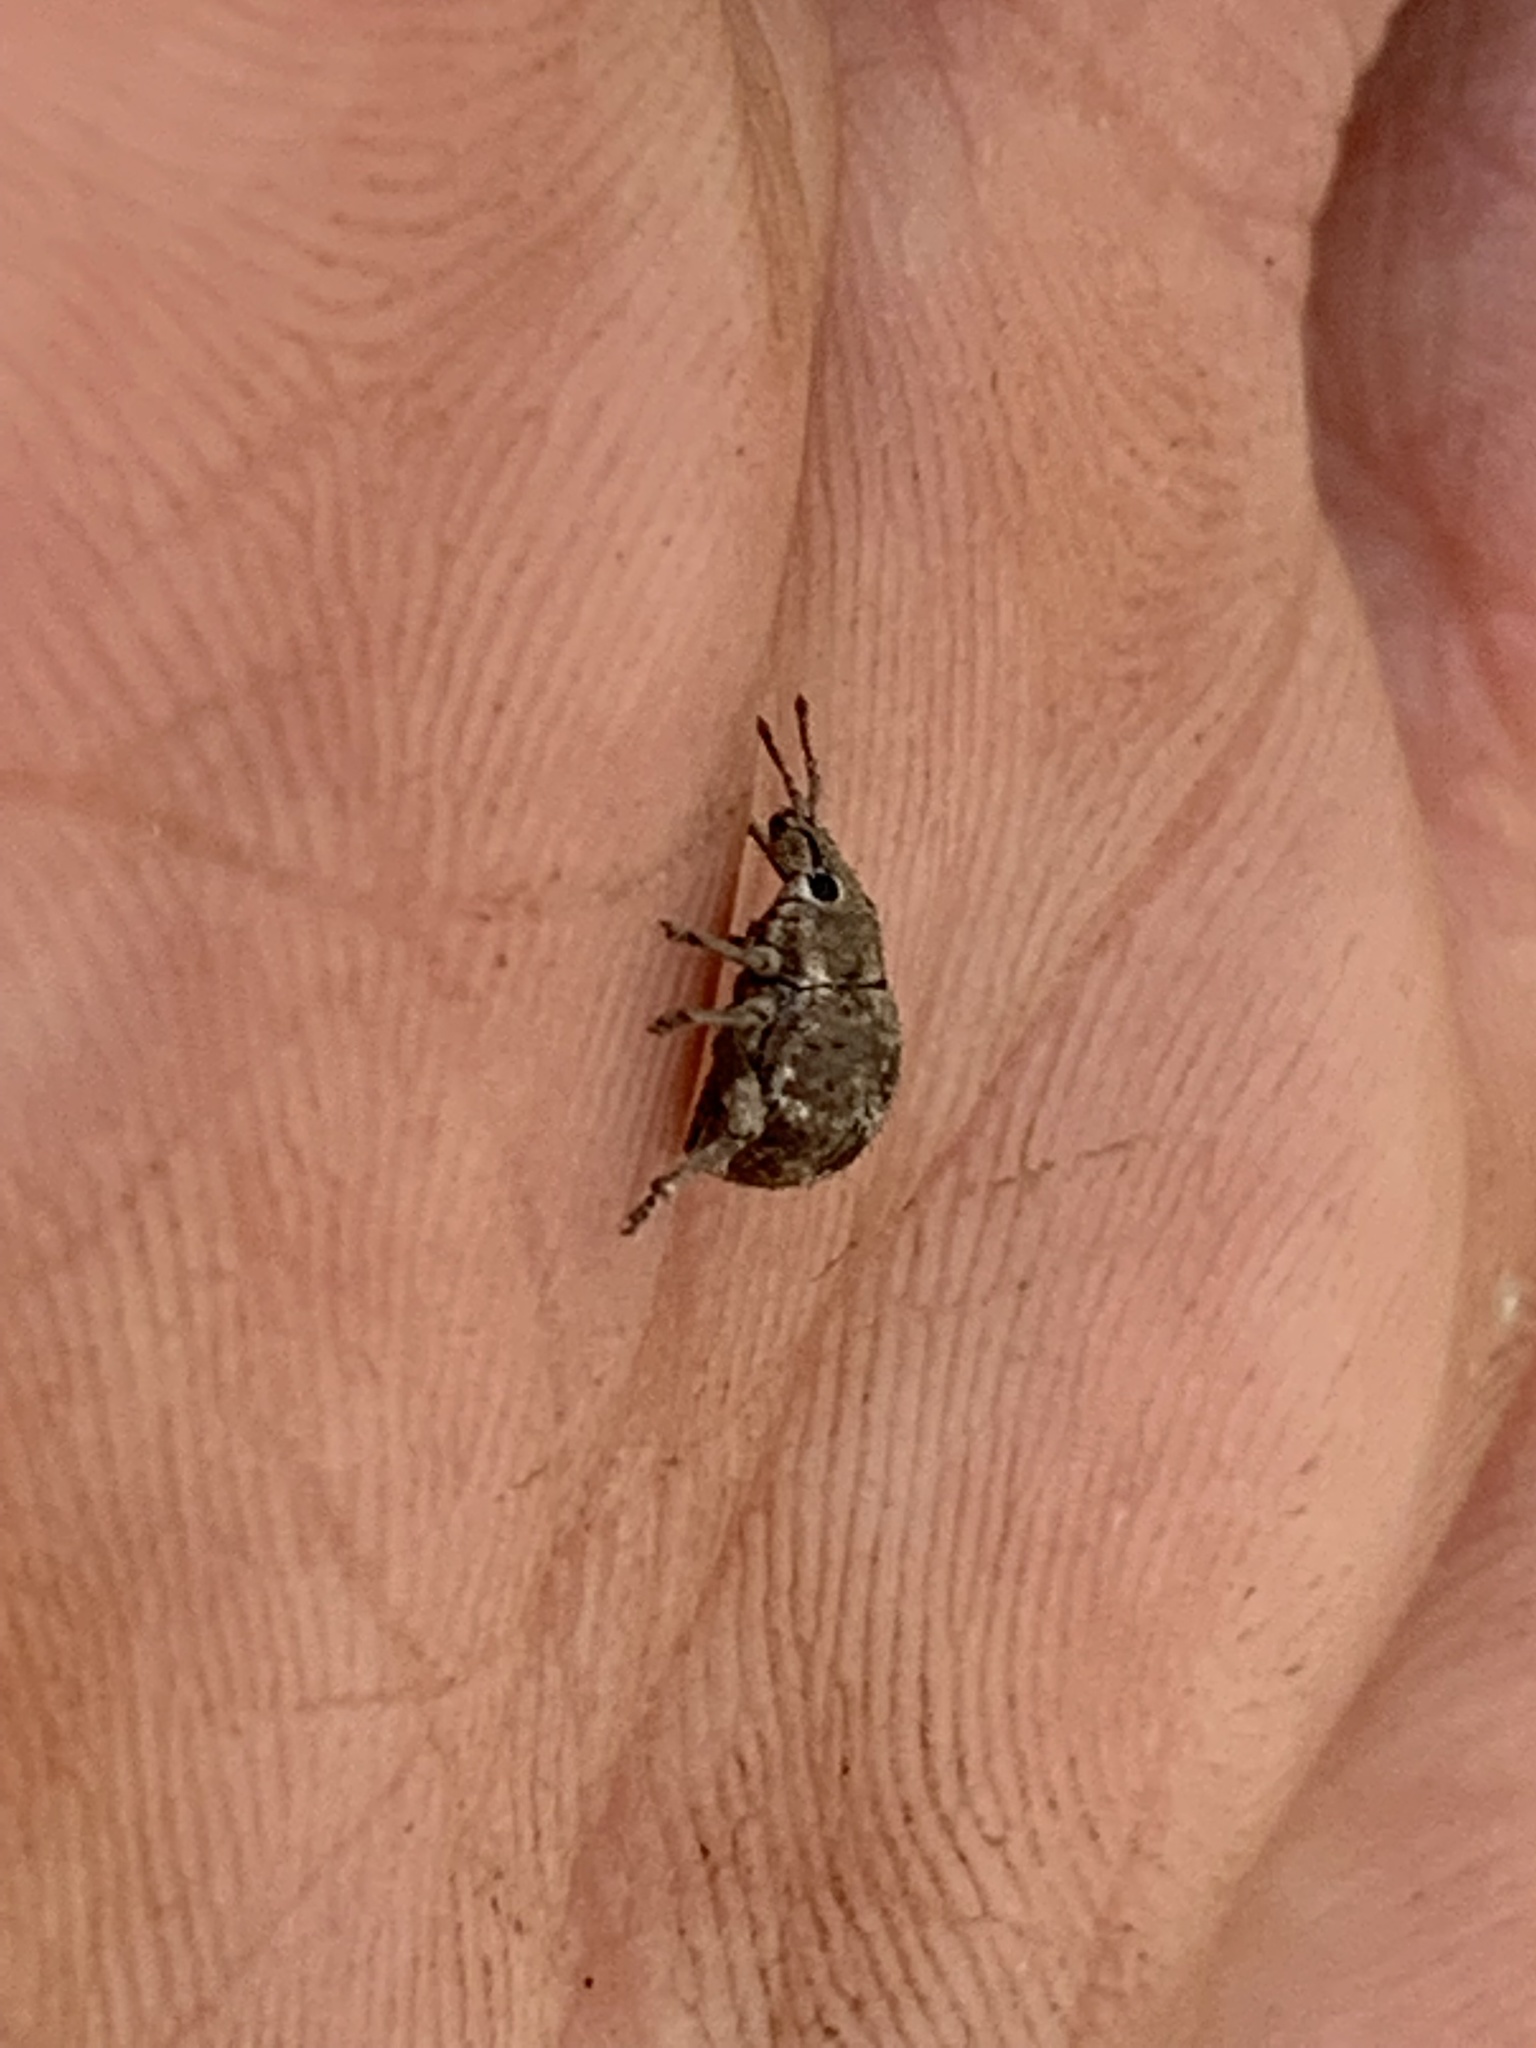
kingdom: Animalia
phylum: Arthropoda
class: Insecta
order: Coleoptera
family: Curculionidae
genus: Pseudocneorhinus
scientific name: Pseudocneorhinus bifasciatus
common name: Two-banded japanese weevil
